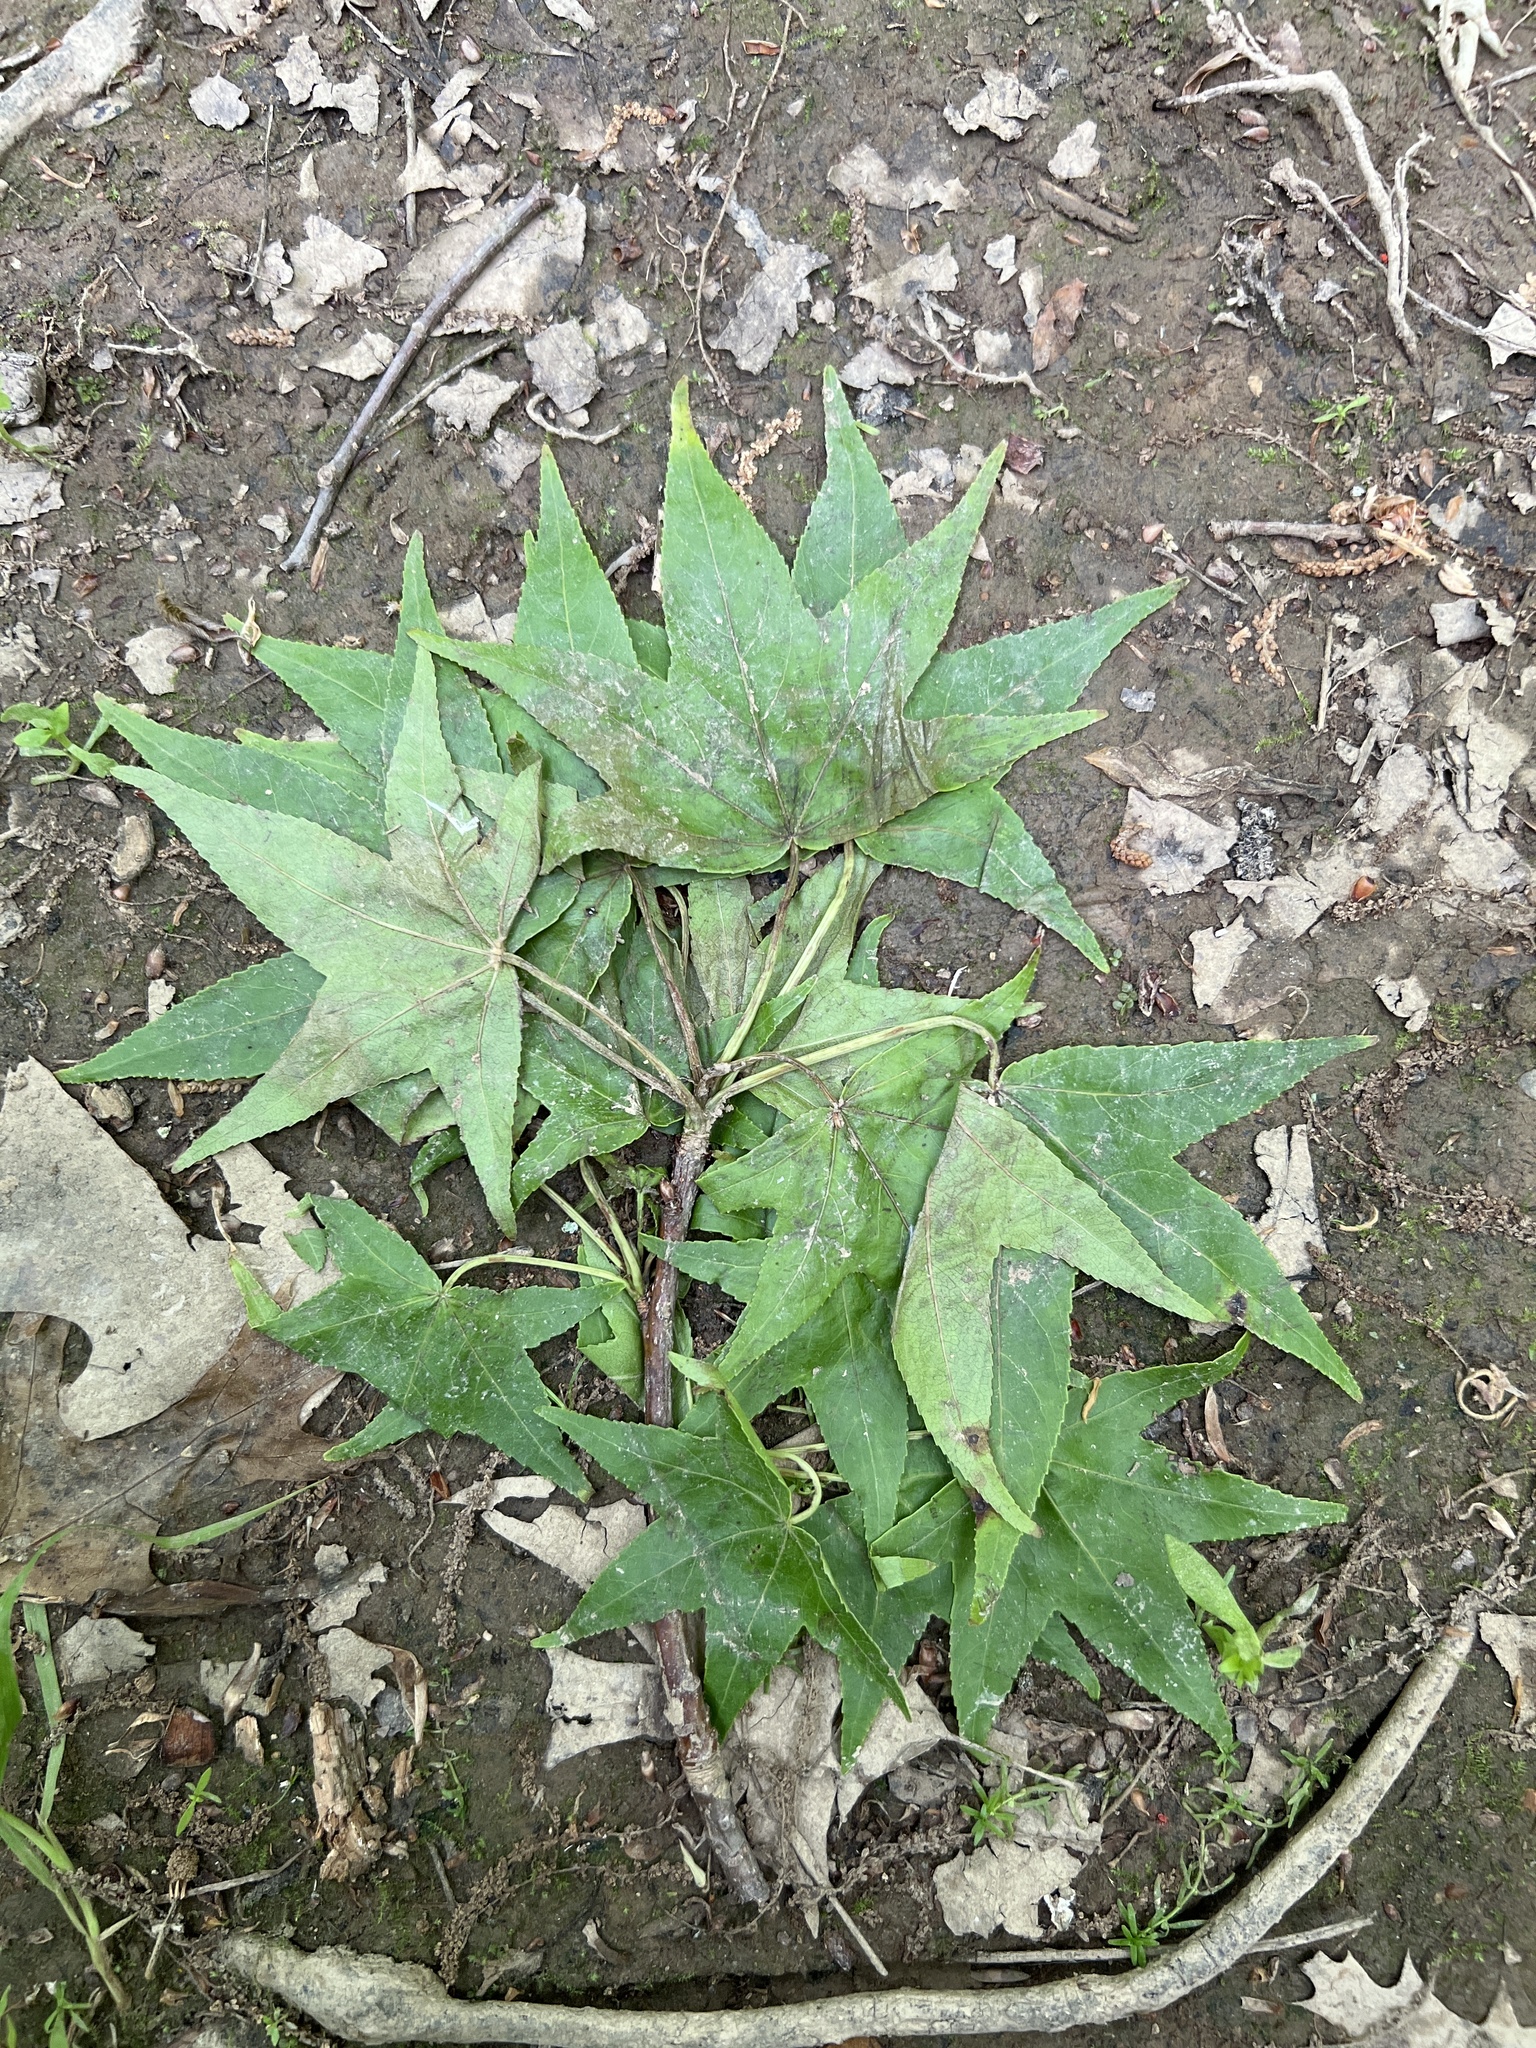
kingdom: Plantae
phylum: Tracheophyta
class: Magnoliopsida
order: Saxifragales
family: Altingiaceae
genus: Liquidambar
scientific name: Liquidambar styraciflua
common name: Sweet gum
